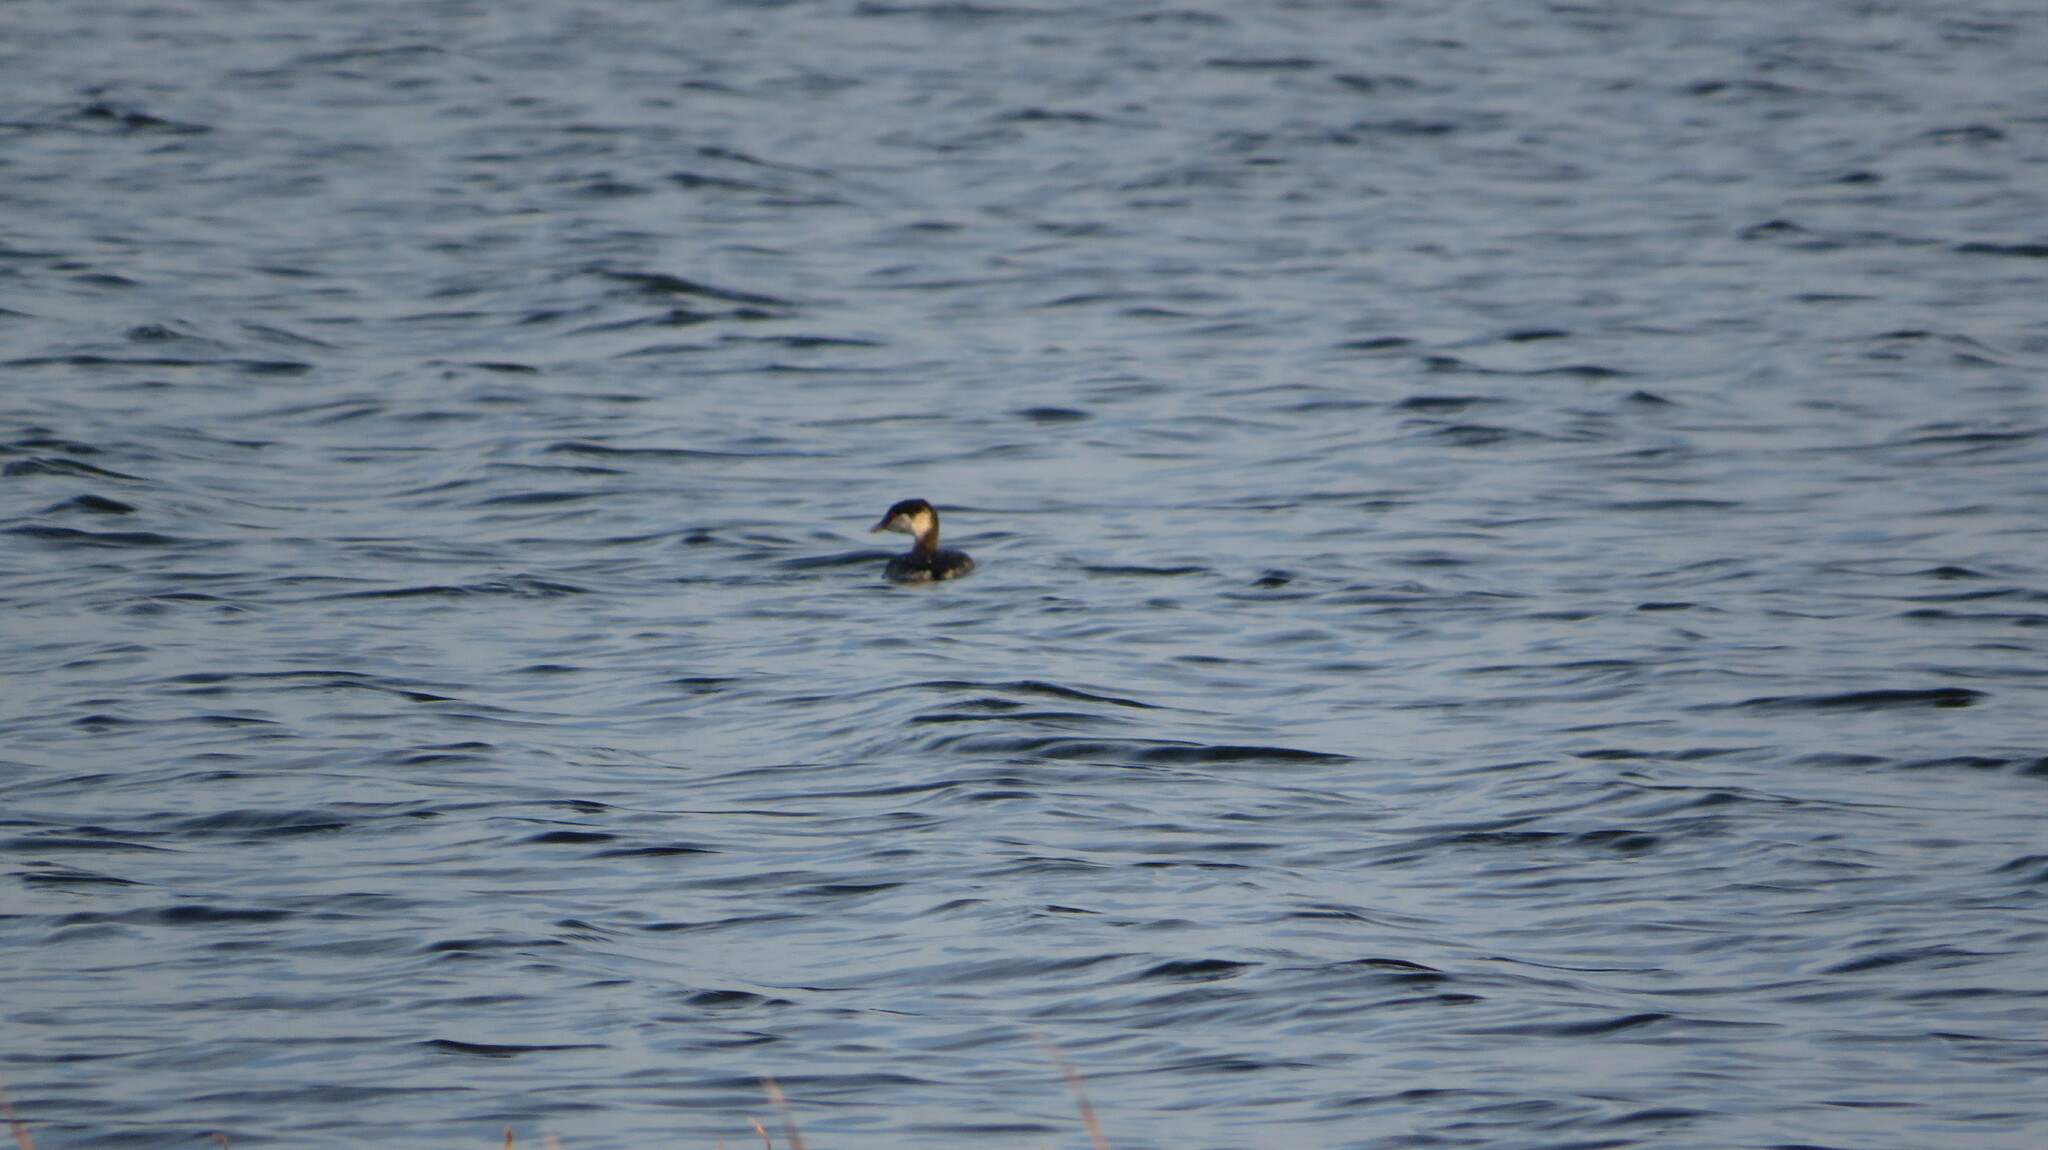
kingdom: Animalia
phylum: Chordata
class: Aves
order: Podicipediformes
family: Podicipedidae
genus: Podiceps
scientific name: Podiceps nigricollis
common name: Black-necked grebe
